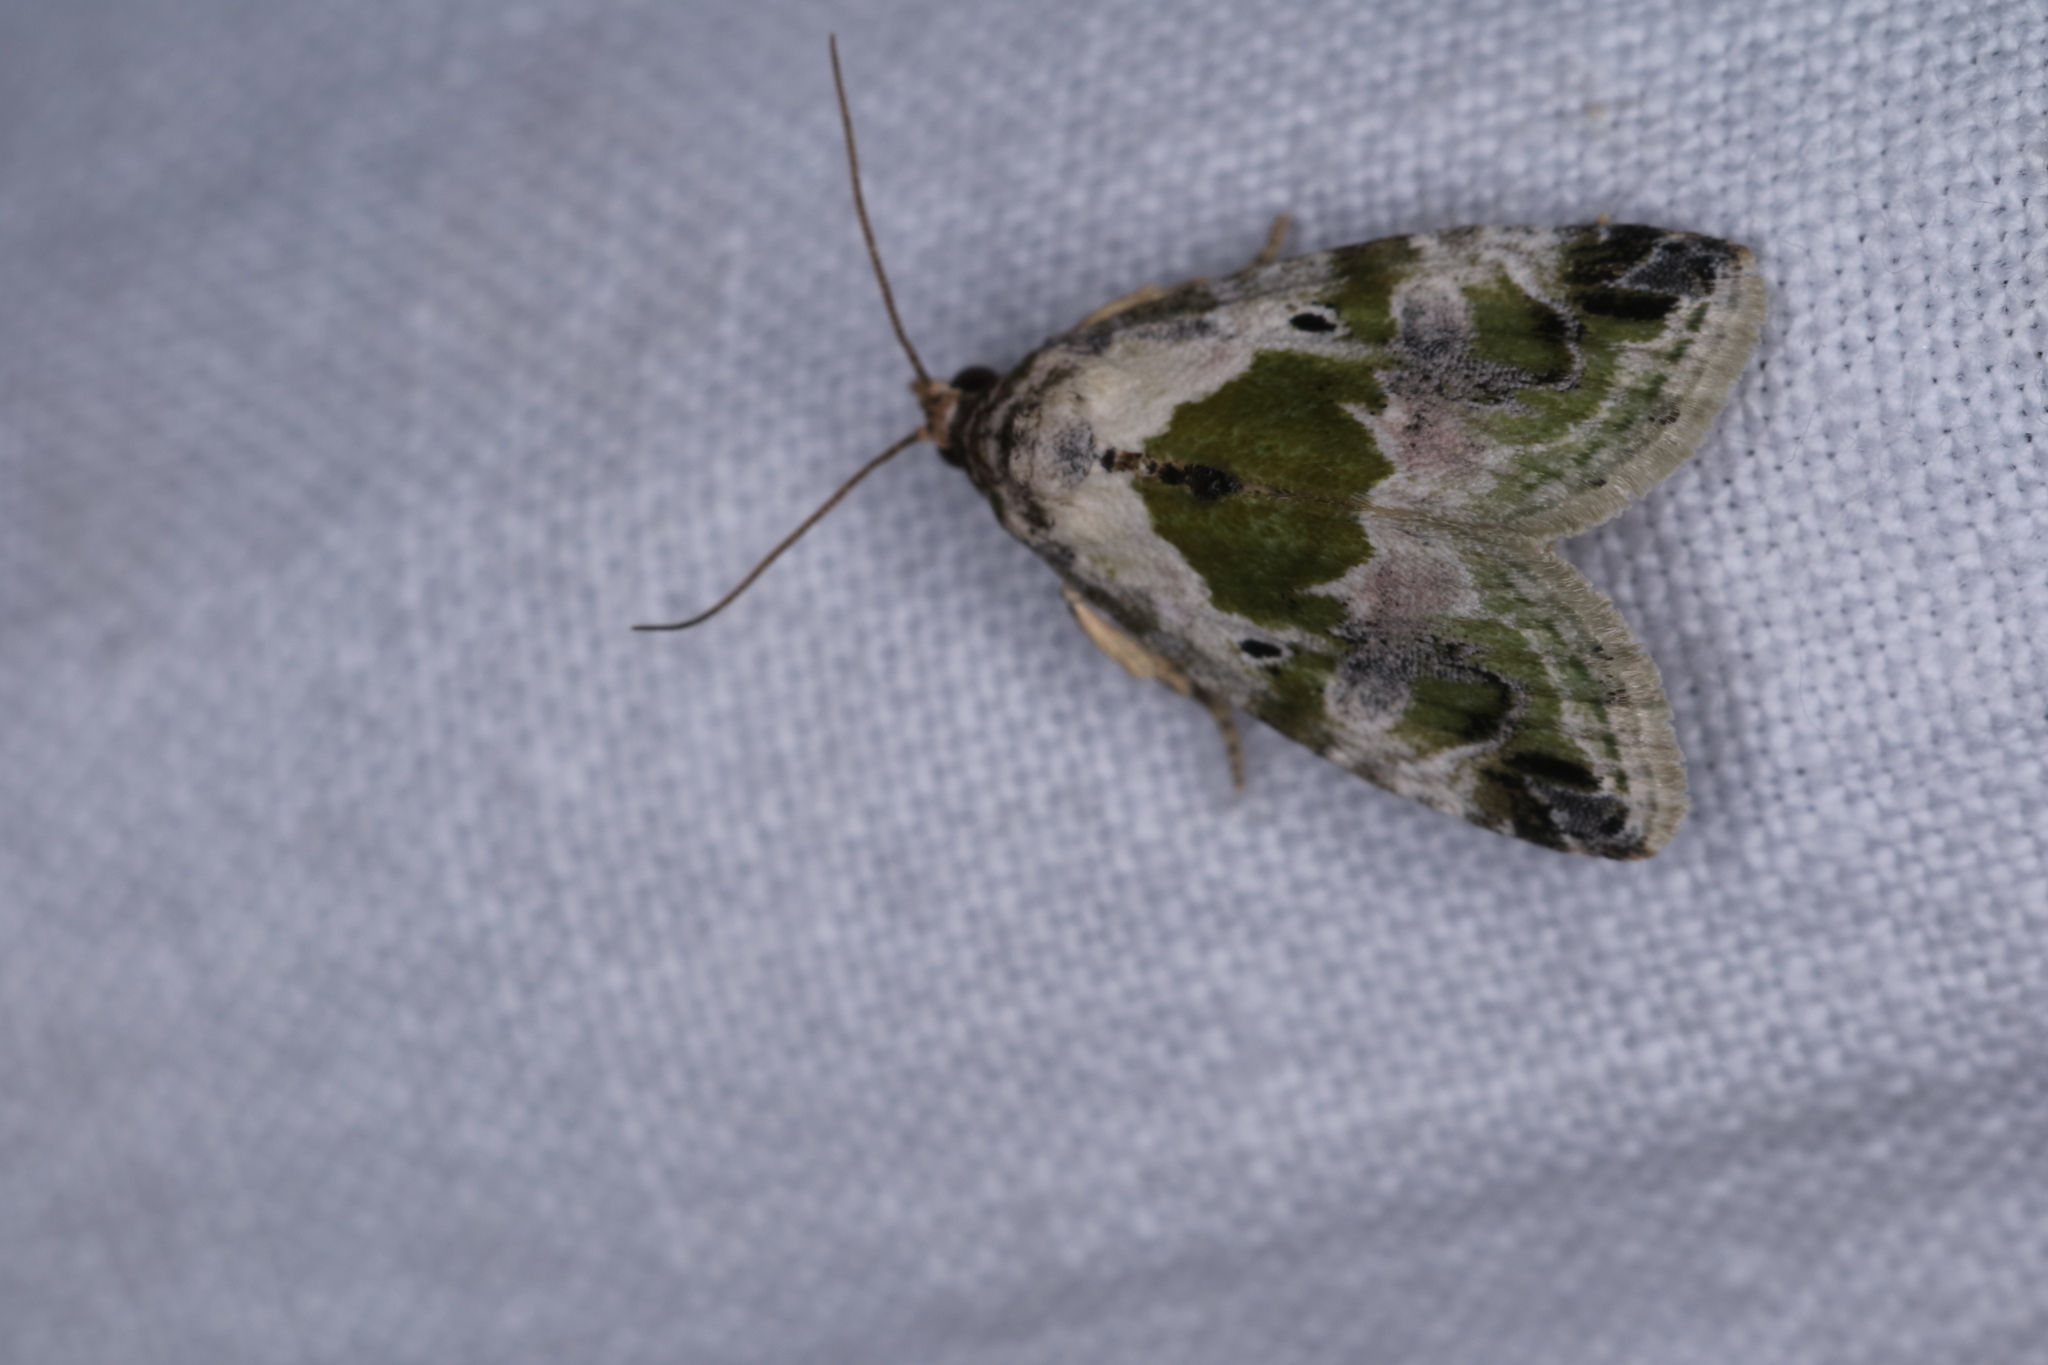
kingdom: Animalia
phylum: Arthropoda
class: Insecta
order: Lepidoptera
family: Noctuidae
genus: Maliattha
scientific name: Maliattha synochitis
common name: Black-dotted glyph
